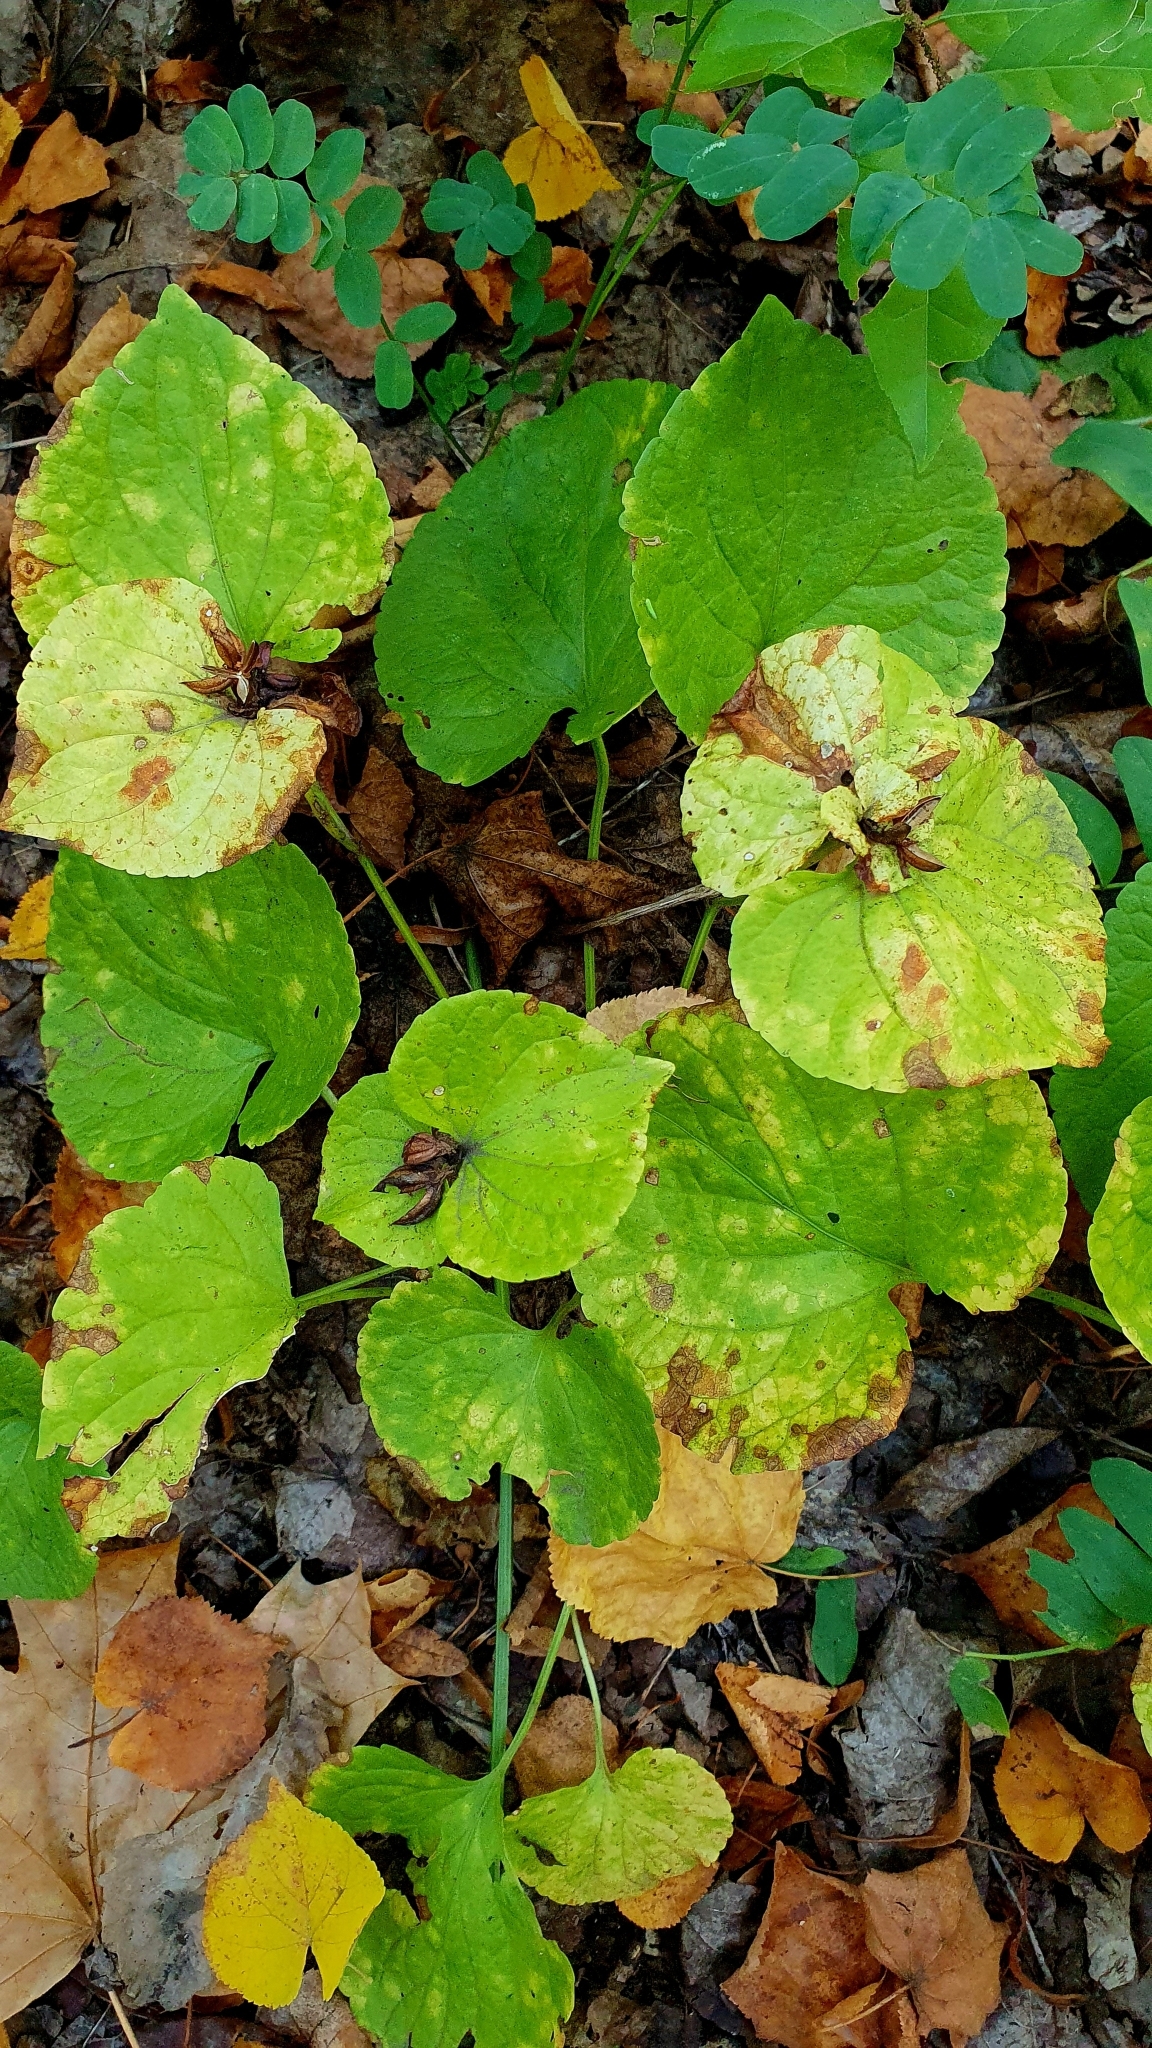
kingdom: Plantae
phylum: Tracheophyta
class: Magnoliopsida
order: Malpighiales
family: Violaceae
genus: Viola
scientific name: Viola mirabilis
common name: Wonder violet
